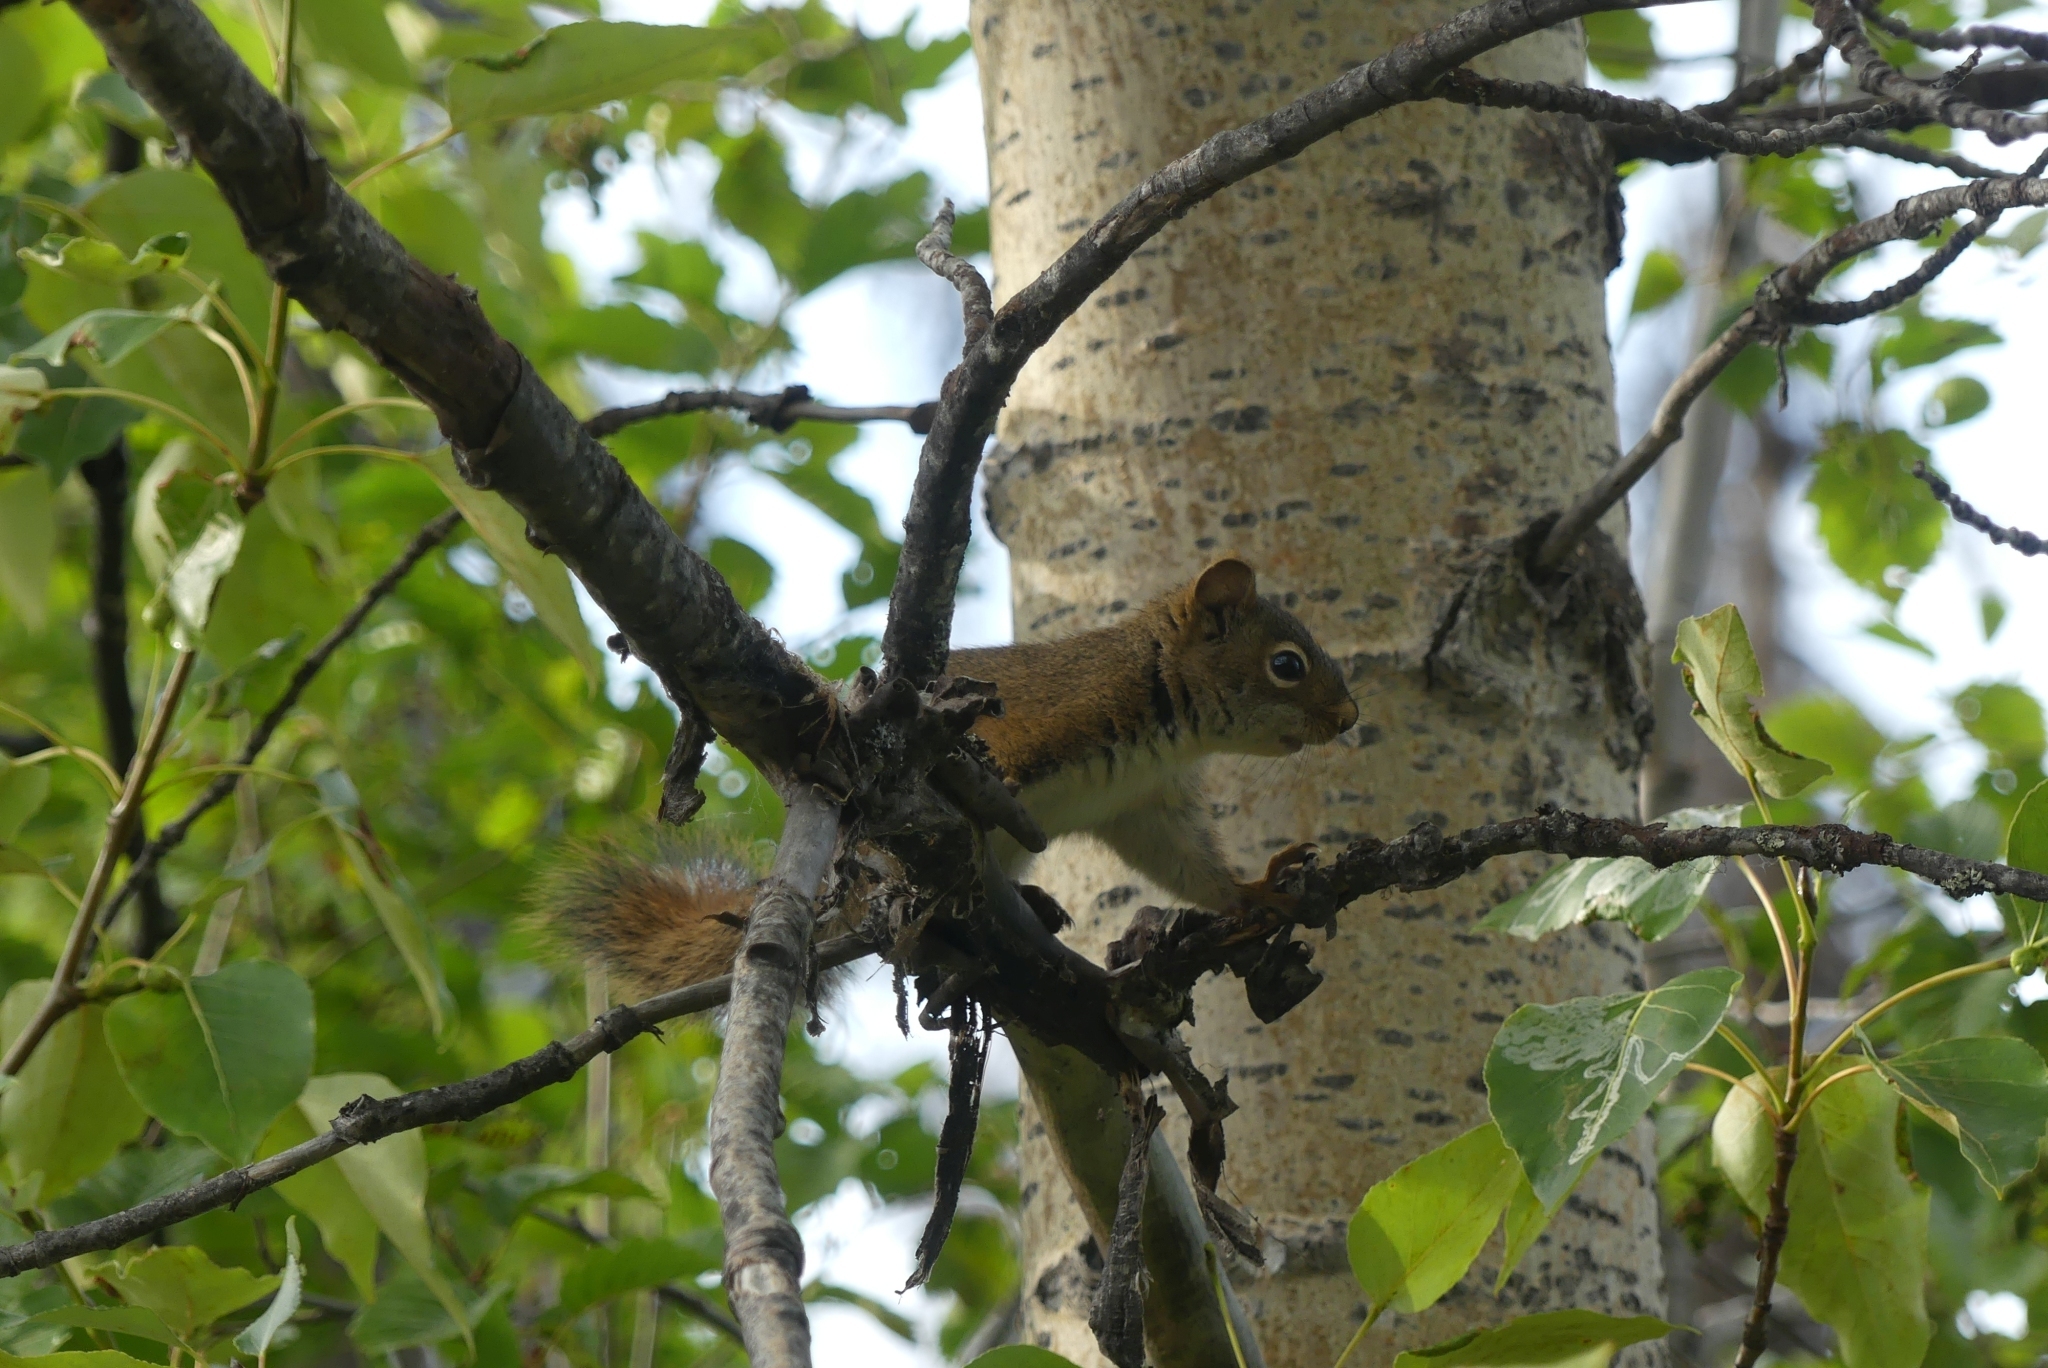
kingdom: Animalia
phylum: Chordata
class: Mammalia
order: Rodentia
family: Sciuridae
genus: Tamiasciurus
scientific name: Tamiasciurus hudsonicus
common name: Red squirrel
